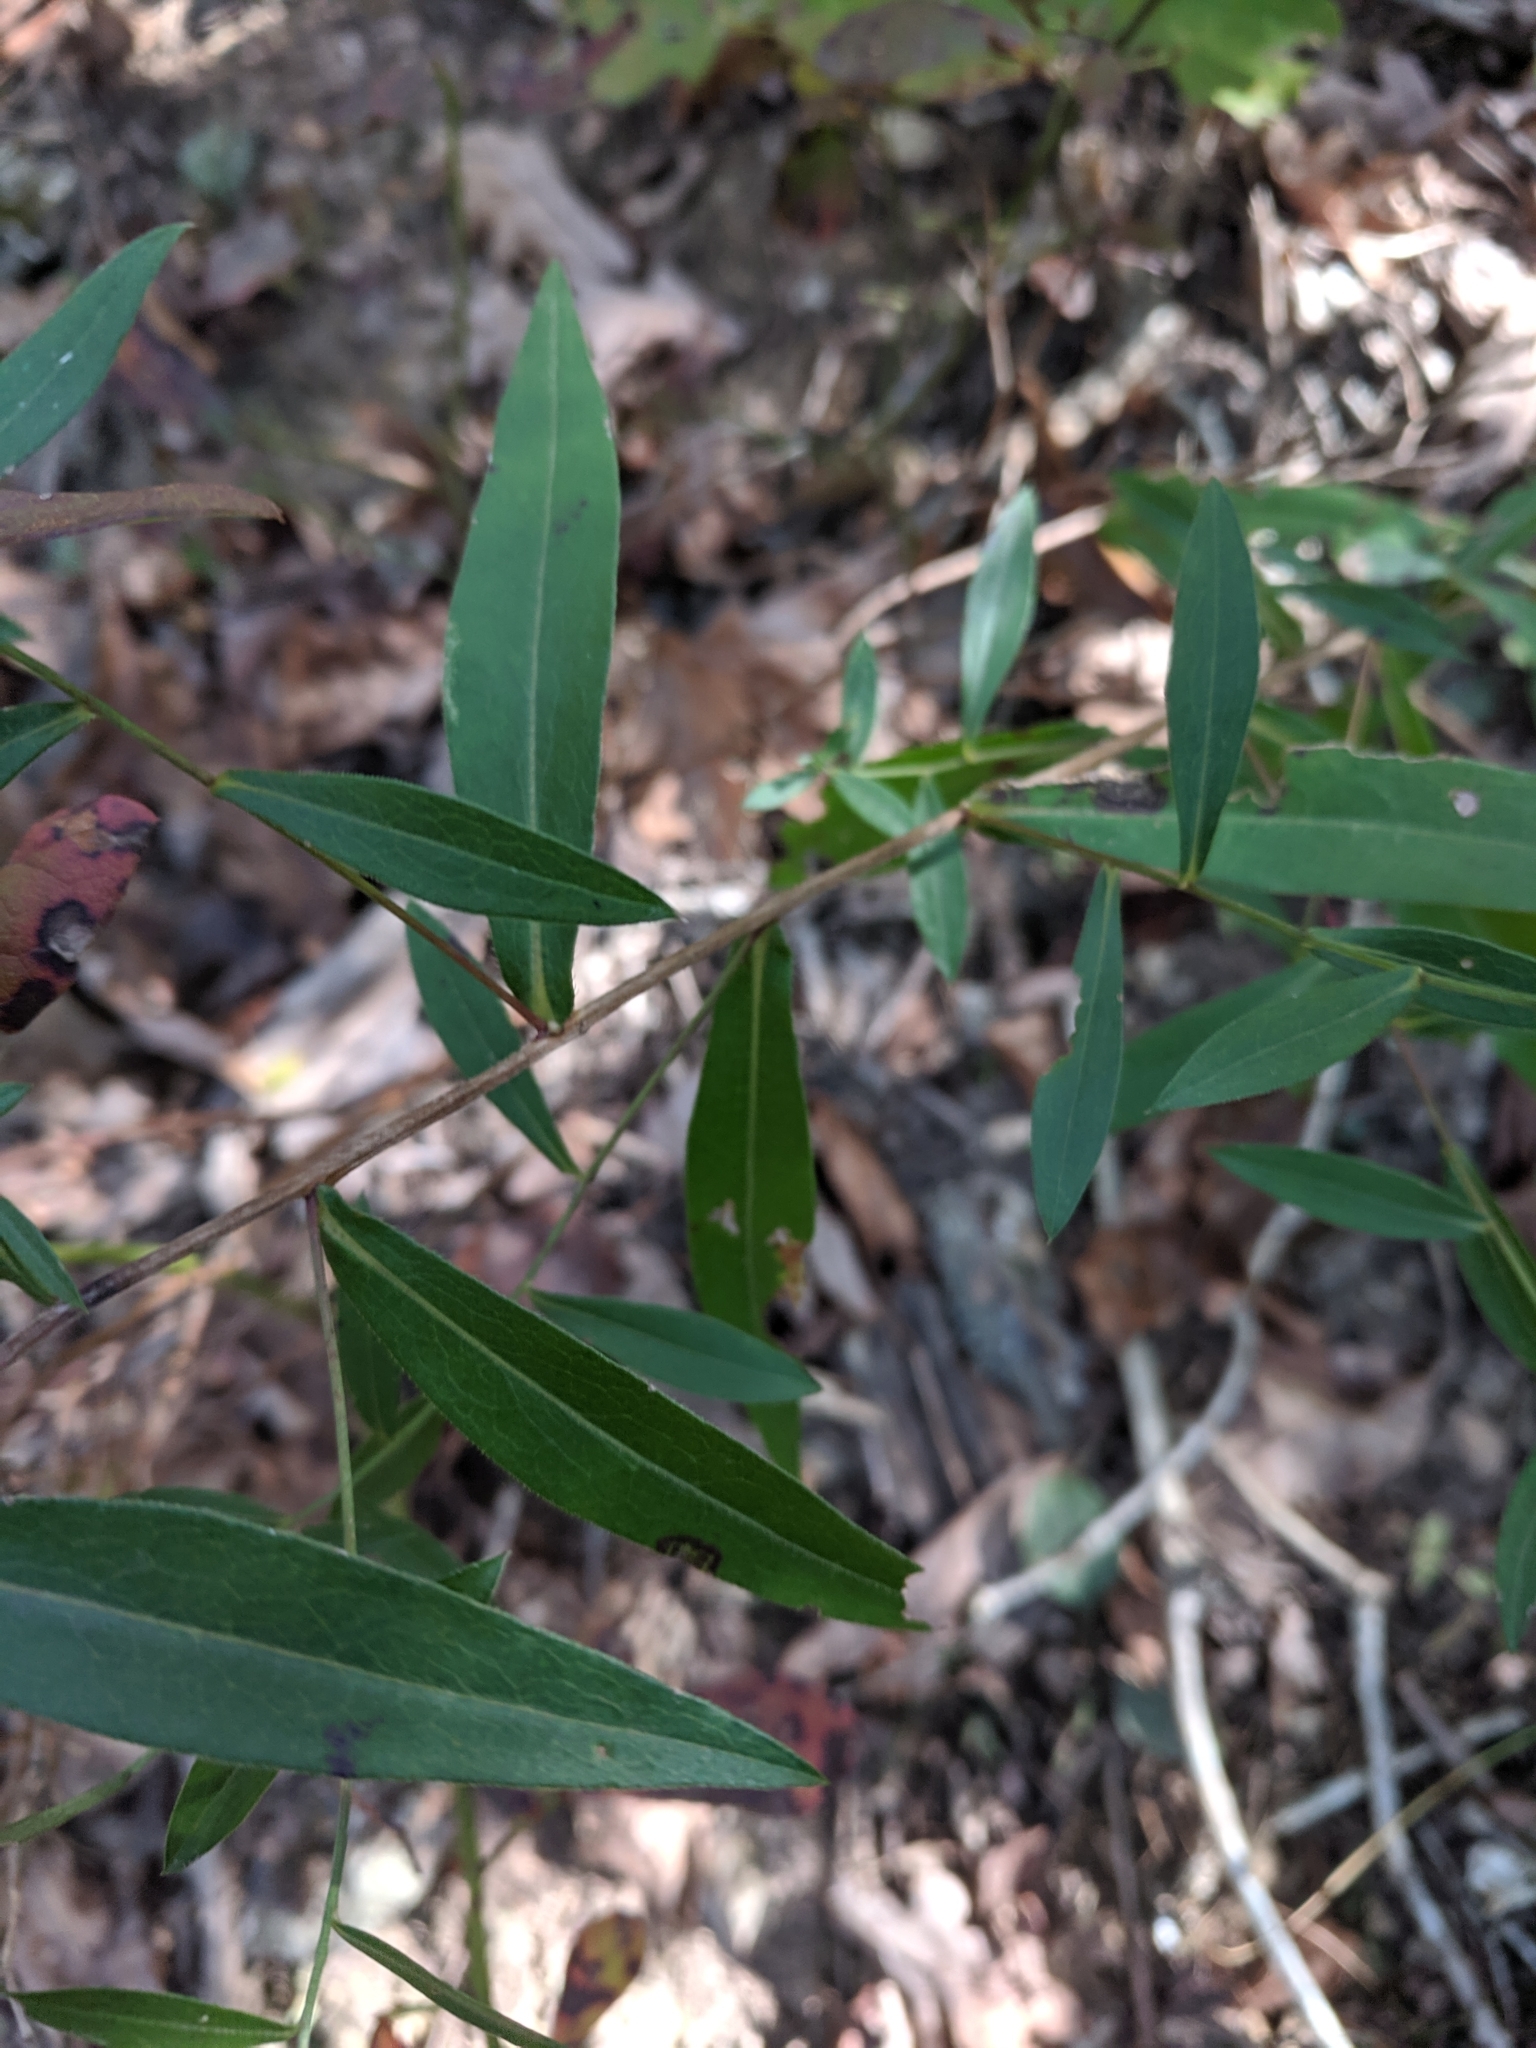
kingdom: Plantae
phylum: Tracheophyta
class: Magnoliopsida
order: Asterales
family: Asteraceae
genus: Symphyotrichum
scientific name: Symphyotrichum turbinellum
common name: Prairie aster
